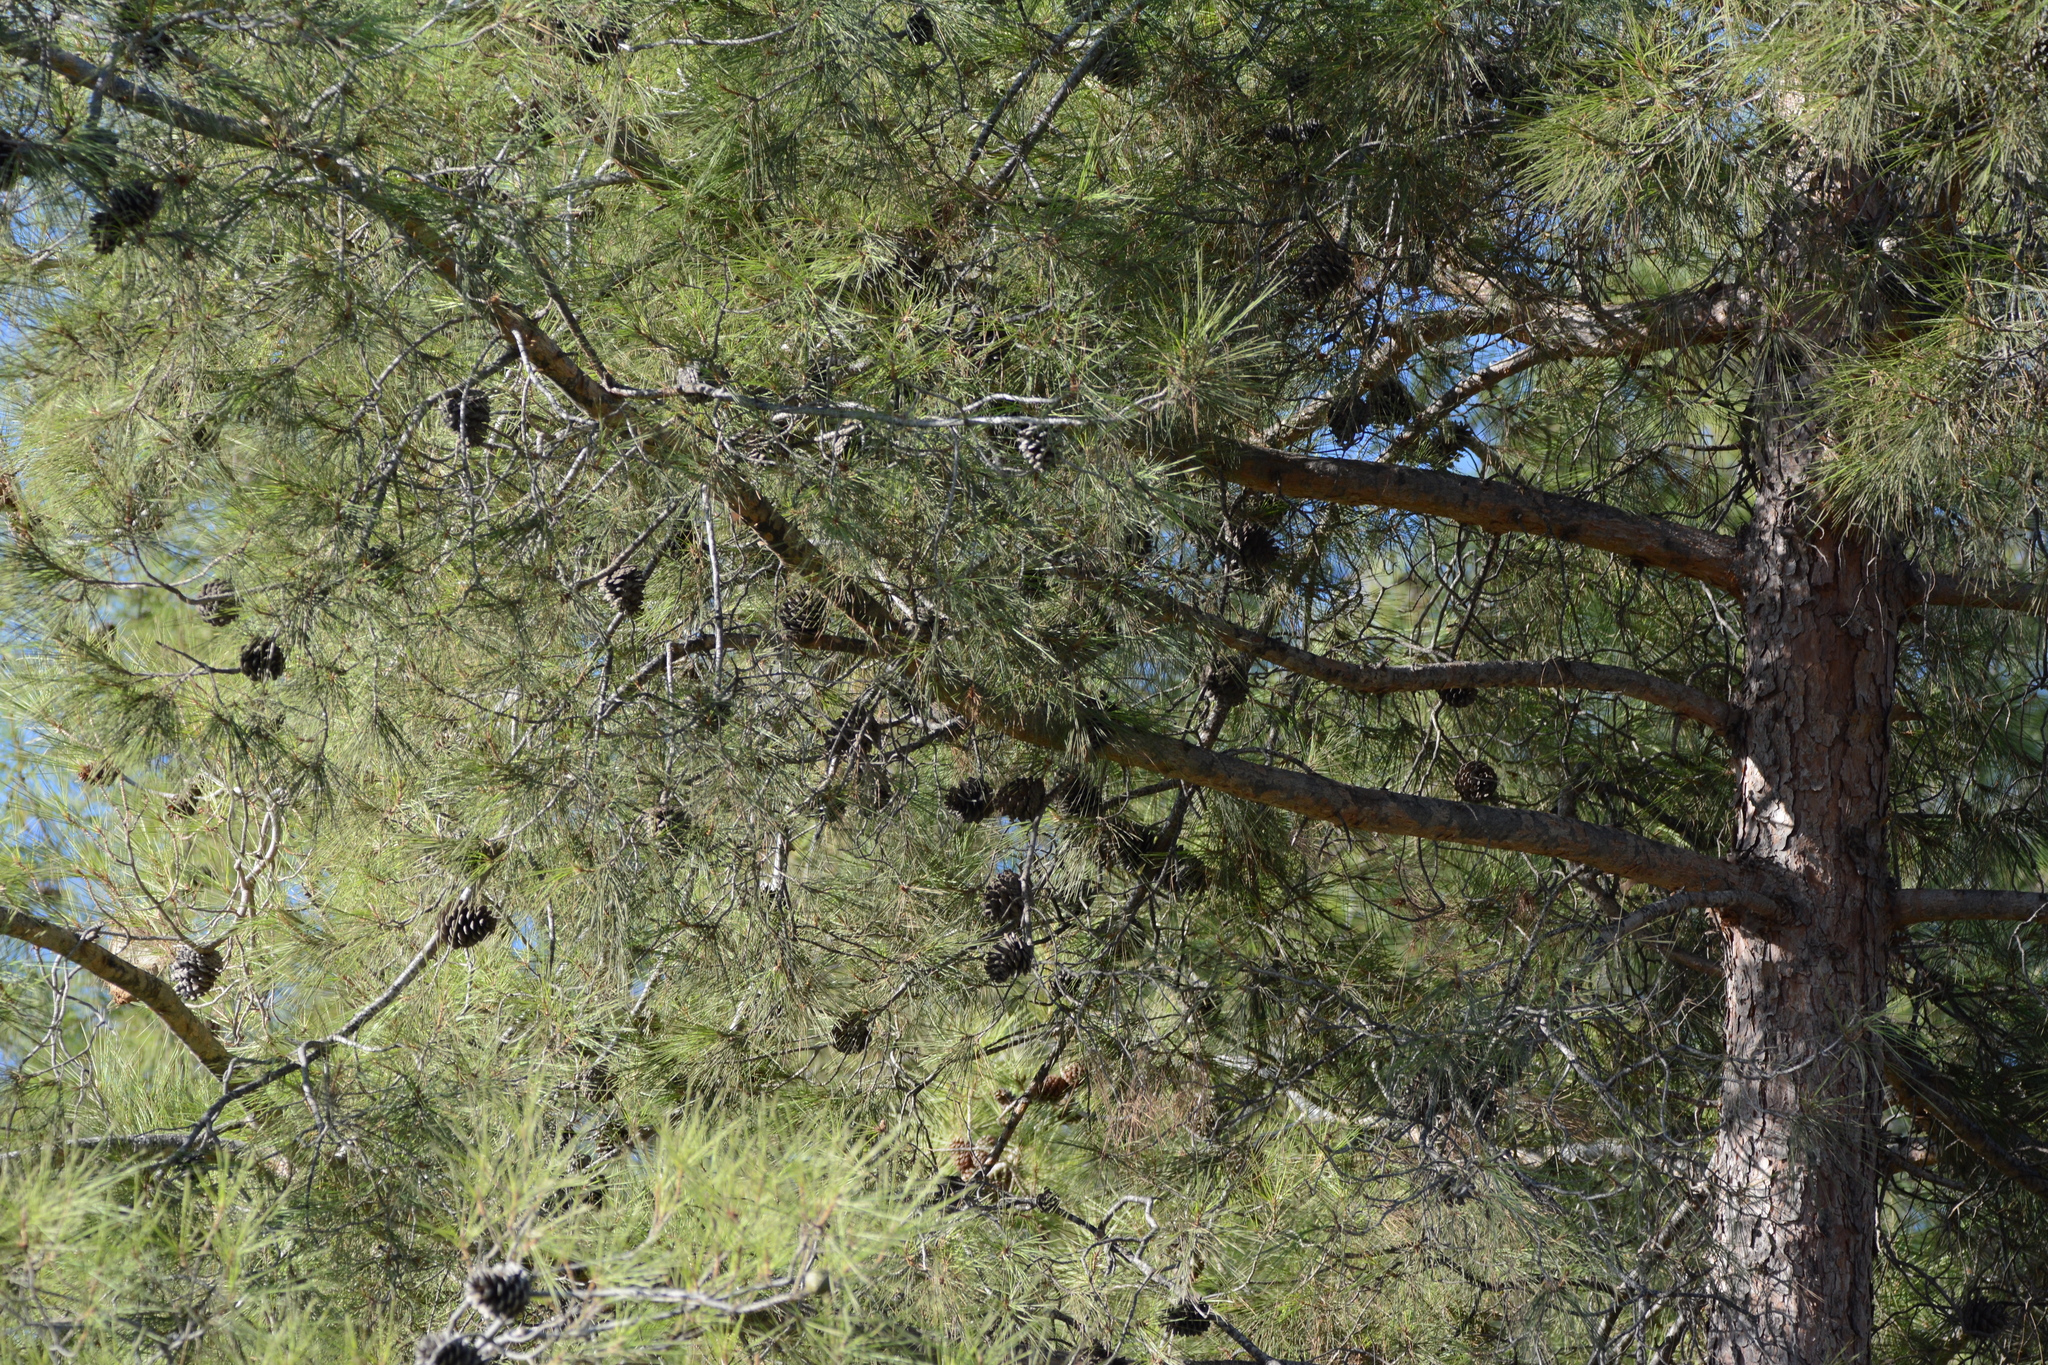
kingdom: Plantae
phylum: Tracheophyta
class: Pinopsida
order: Pinales
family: Pinaceae
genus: Pinus
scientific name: Pinus brutia
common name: Turkish pine
